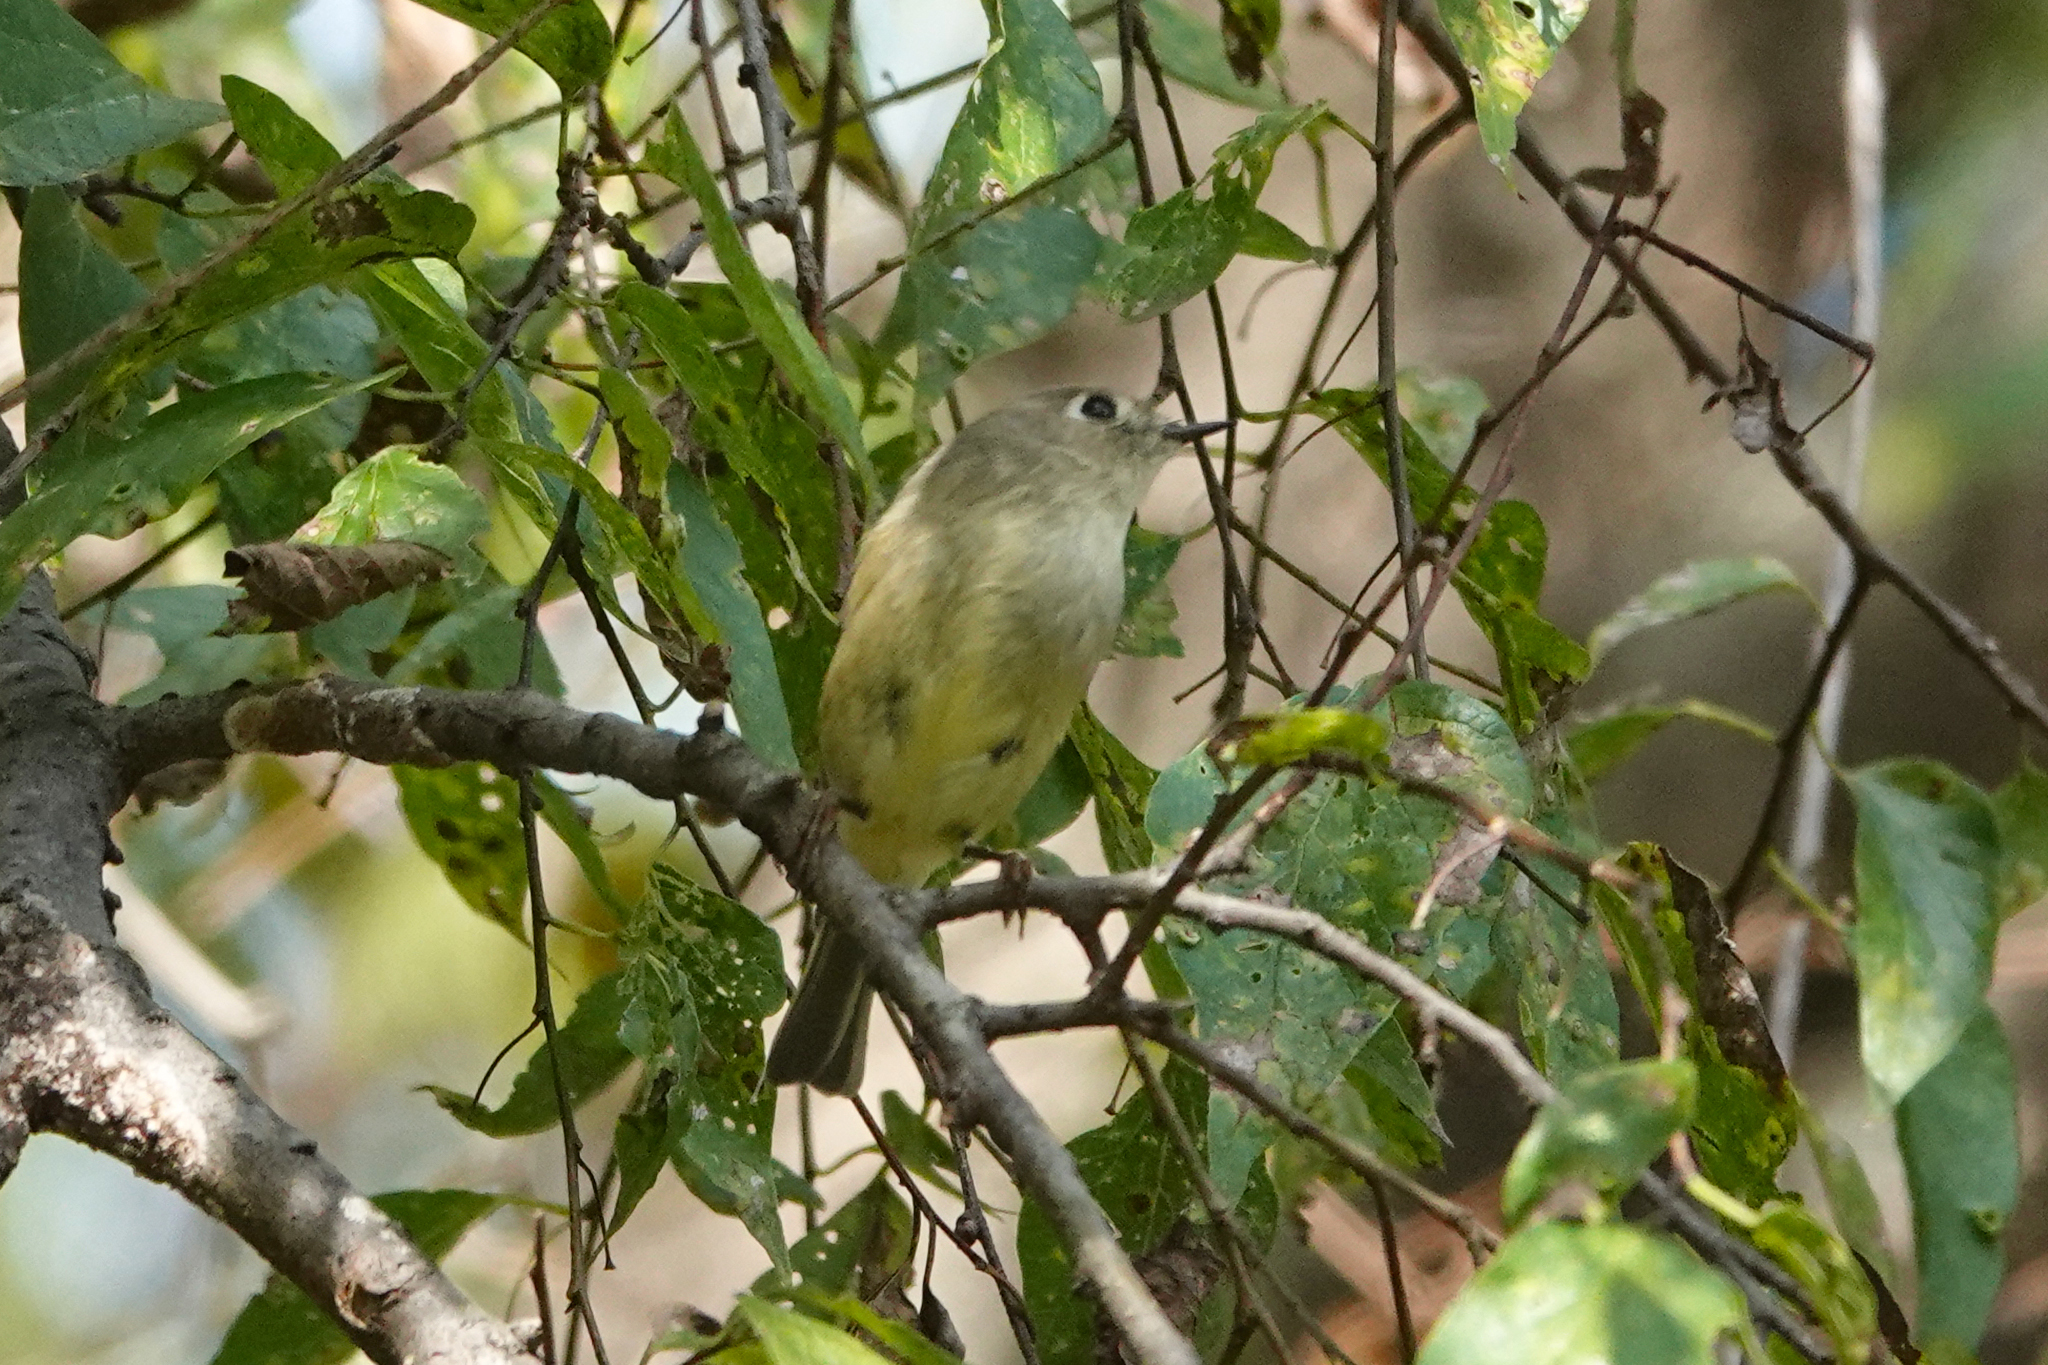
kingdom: Animalia
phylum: Chordata
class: Aves
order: Passeriformes
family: Regulidae
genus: Regulus
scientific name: Regulus calendula
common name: Ruby-crowned kinglet
